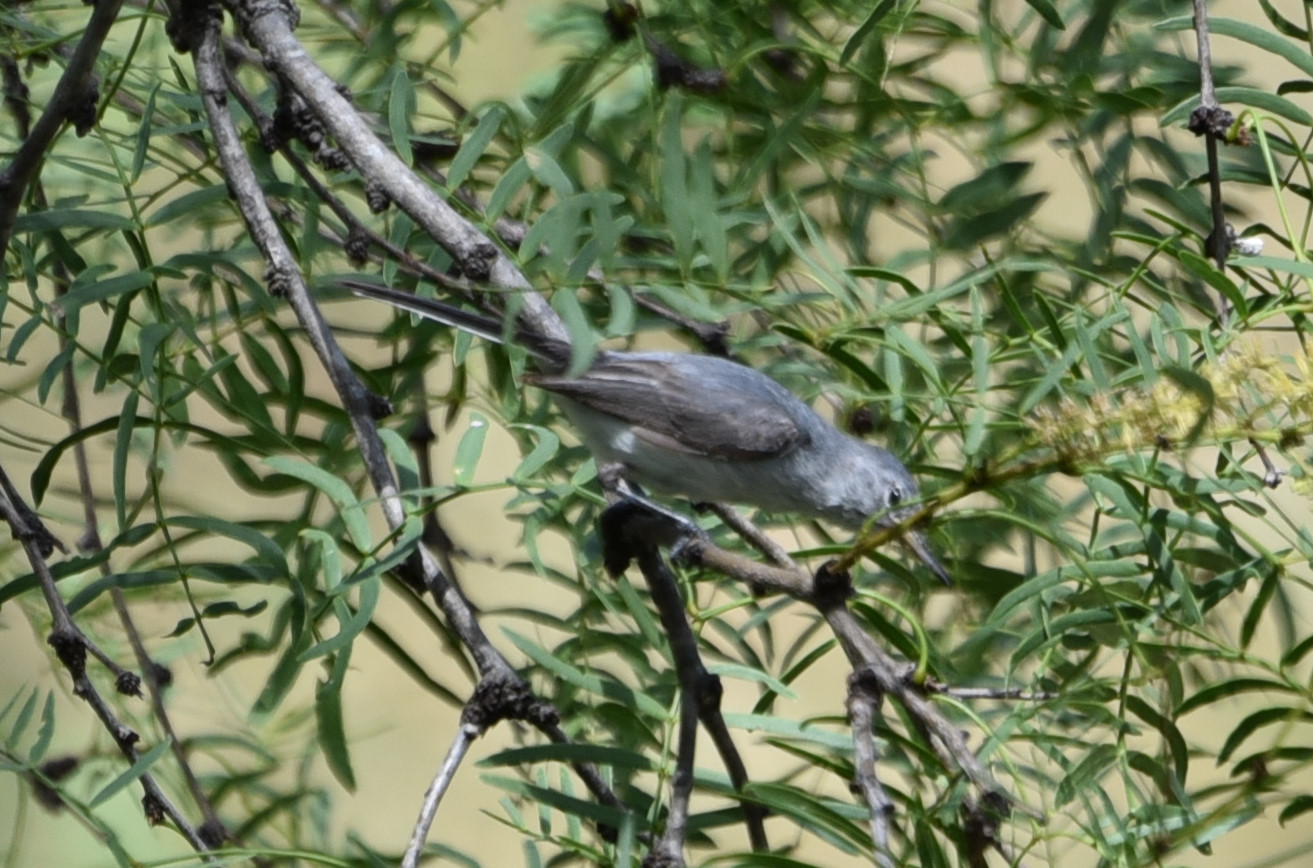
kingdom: Animalia
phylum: Chordata
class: Aves
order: Passeriformes
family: Polioptilidae
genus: Polioptila
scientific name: Polioptila caerulea
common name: Blue-gray gnatcatcher
